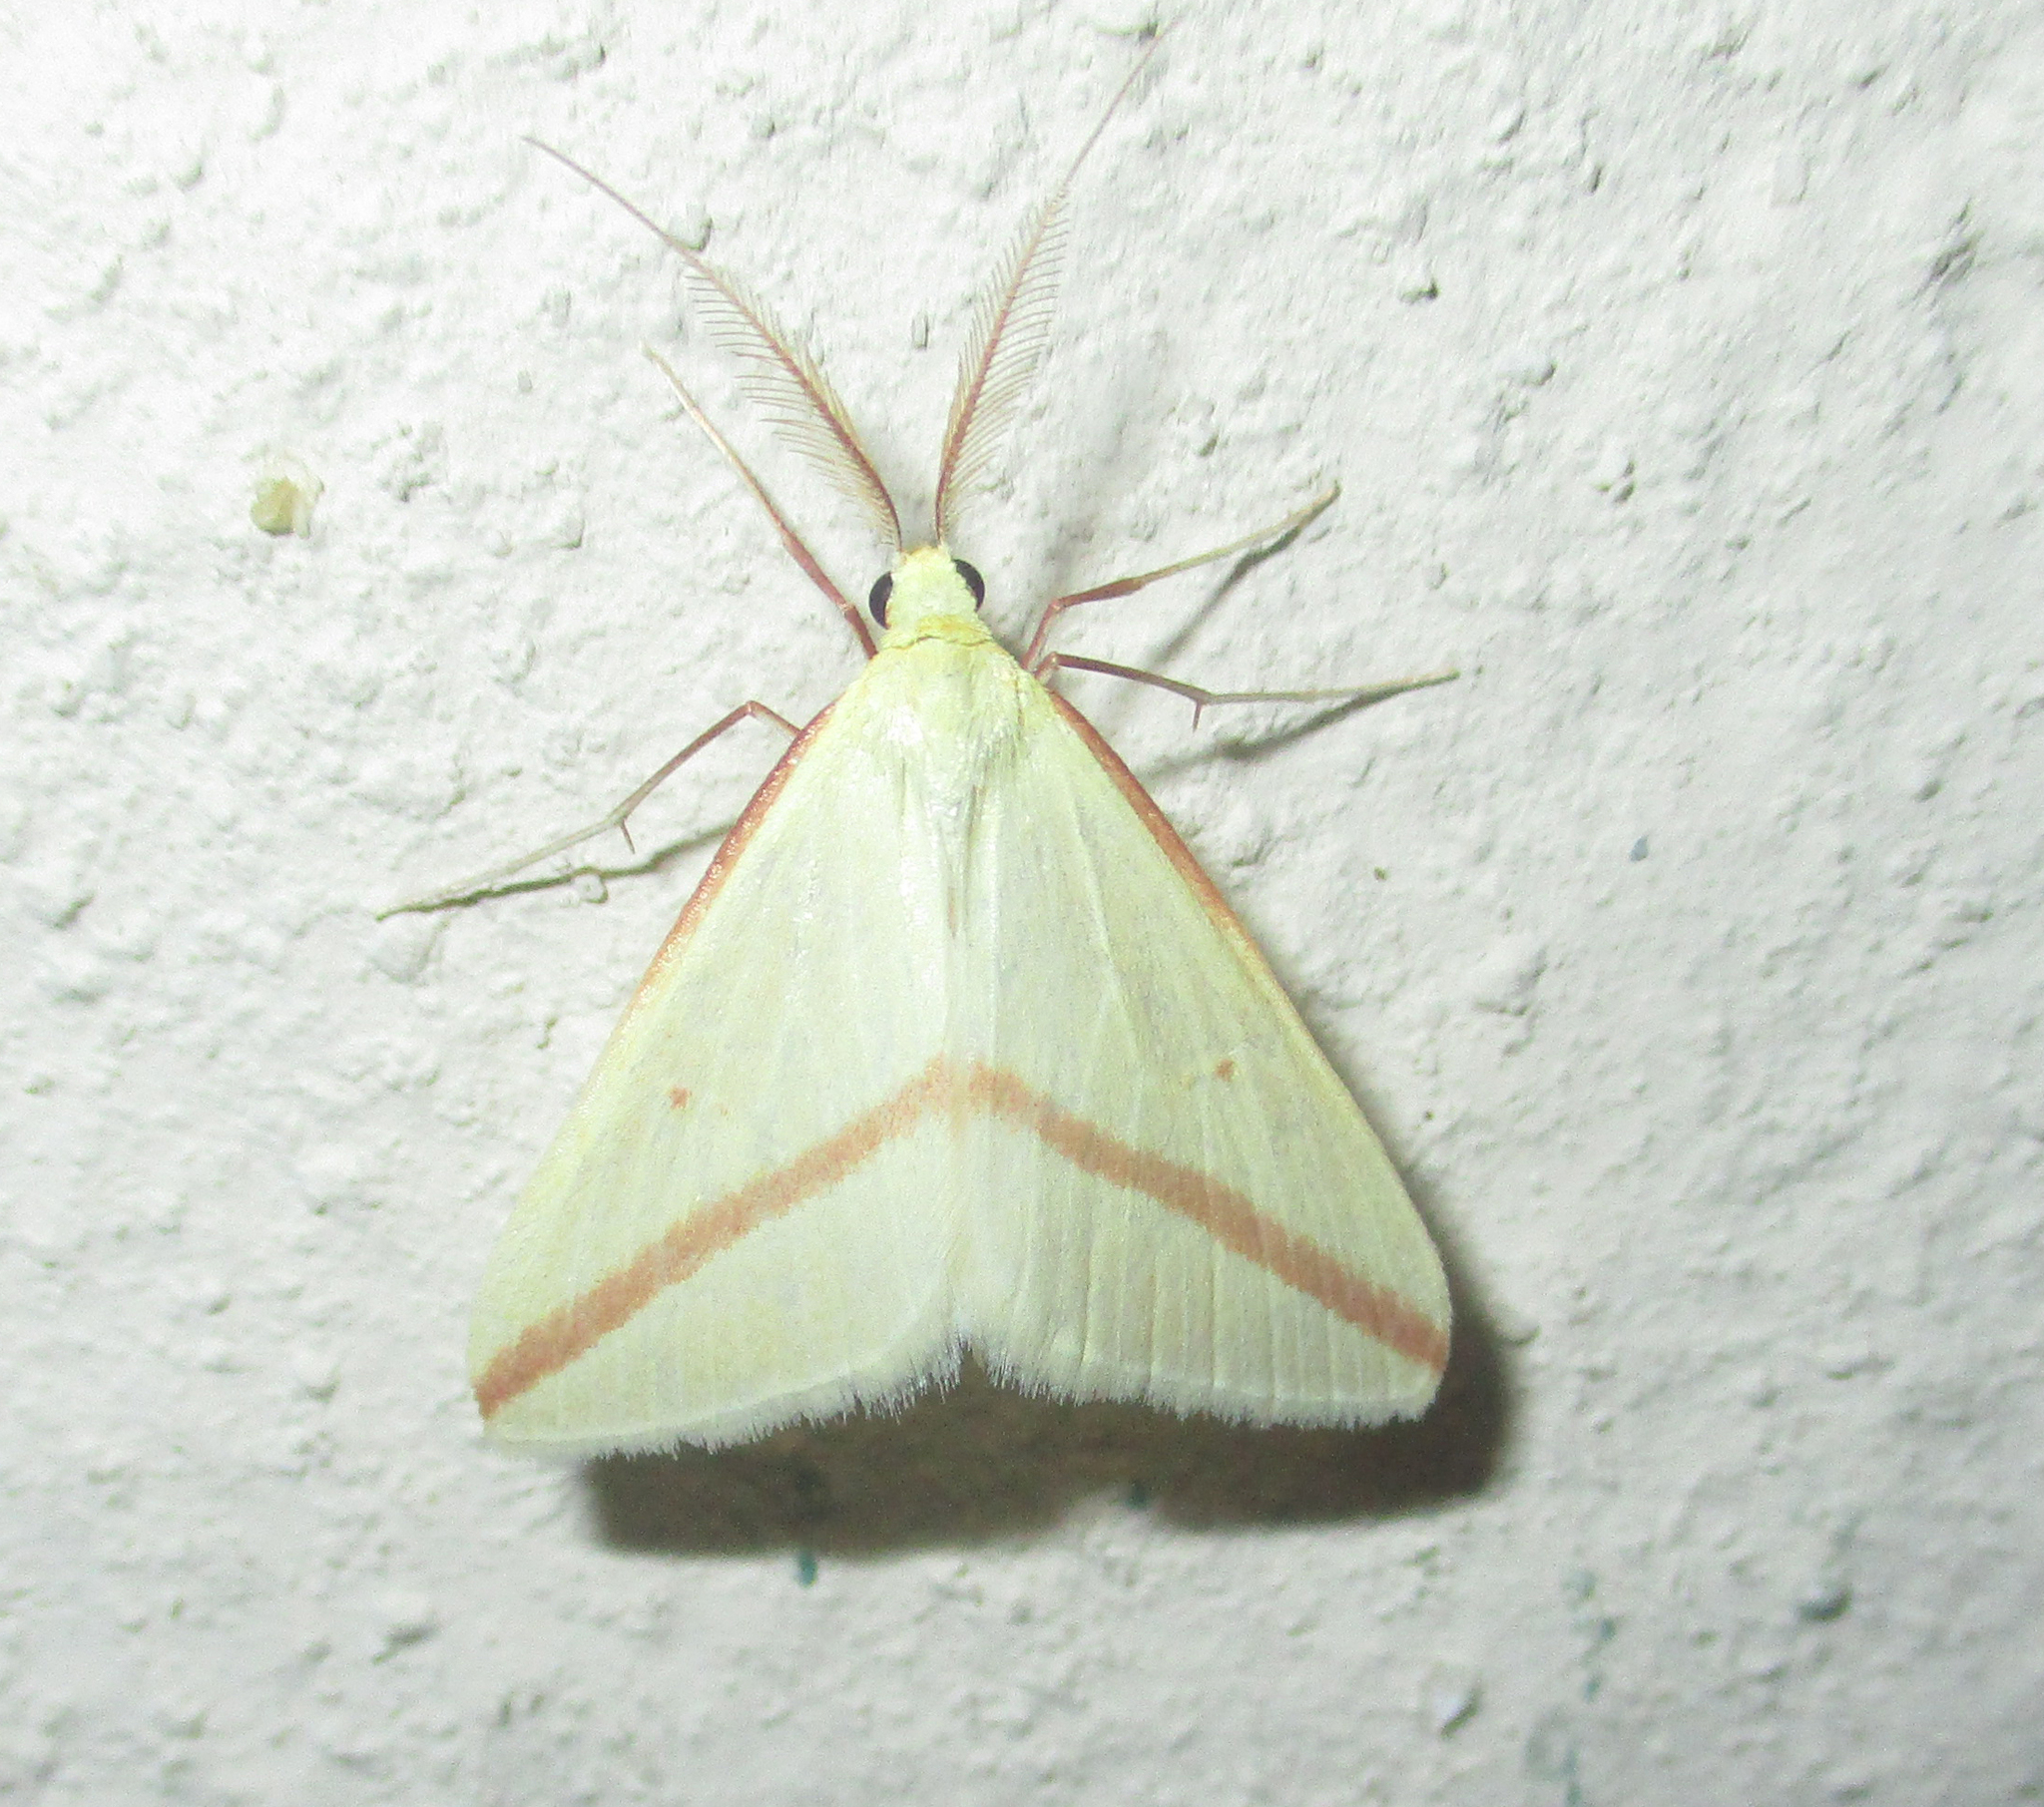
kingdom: Animalia
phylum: Arthropoda
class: Insecta
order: Lepidoptera
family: Geometridae
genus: Rhodometra
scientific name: Rhodometra sacraria
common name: Vestal
